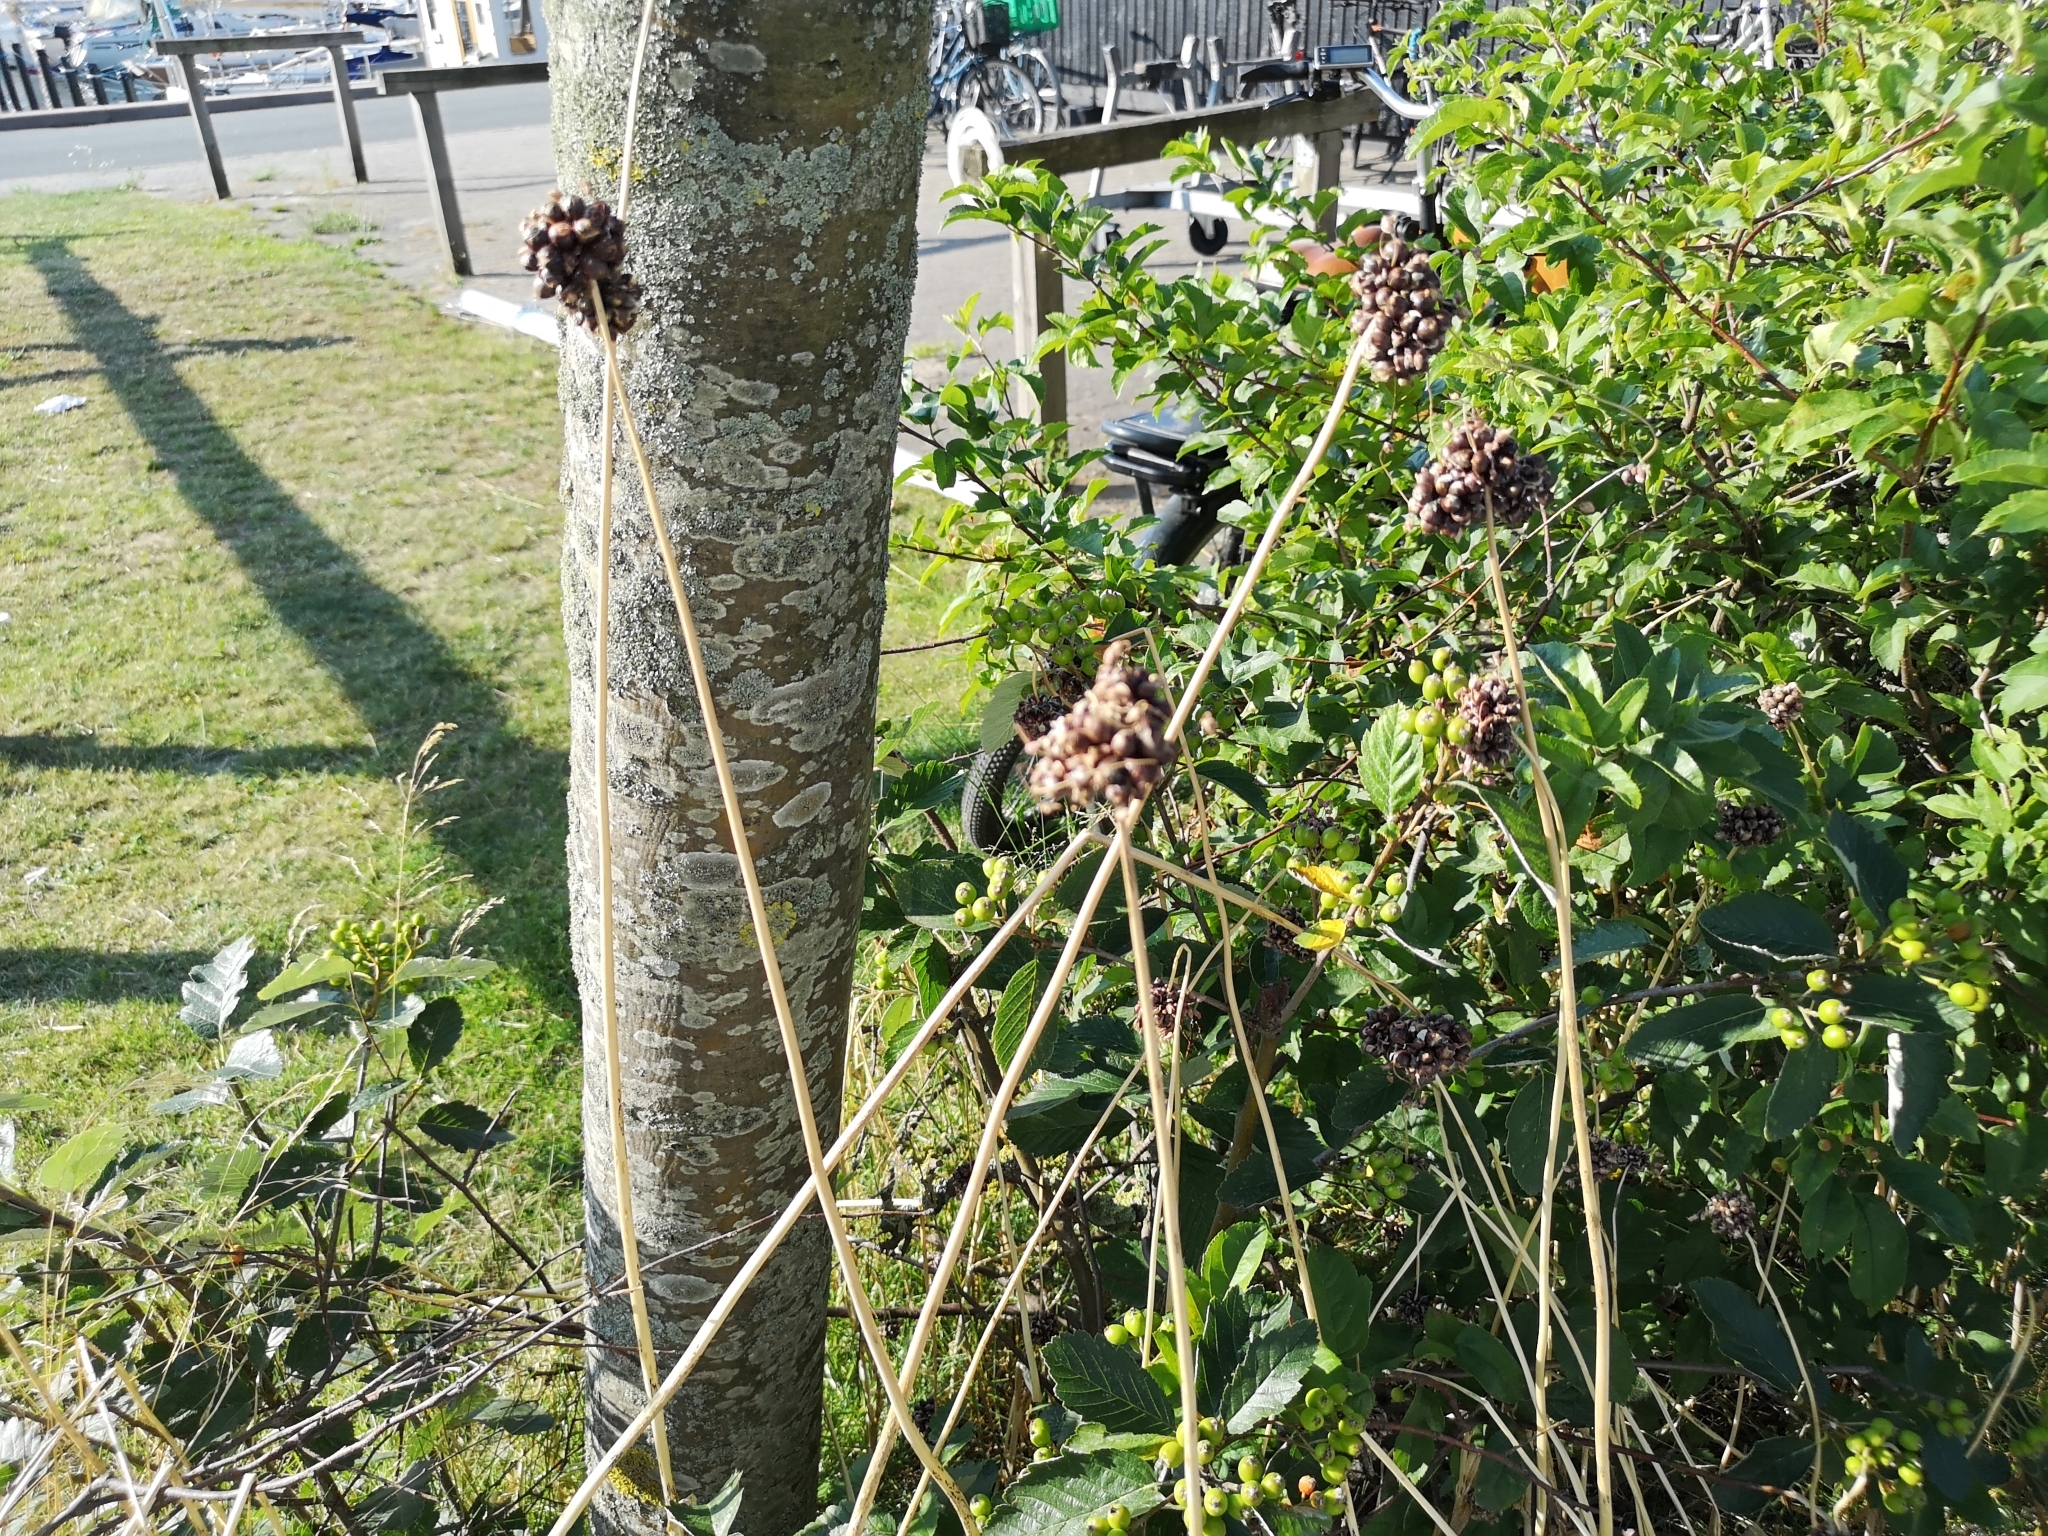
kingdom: Plantae
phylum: Tracheophyta
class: Liliopsida
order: Asparagales
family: Amaryllidaceae
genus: Allium
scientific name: Allium scorodoprasum
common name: Sand leek
